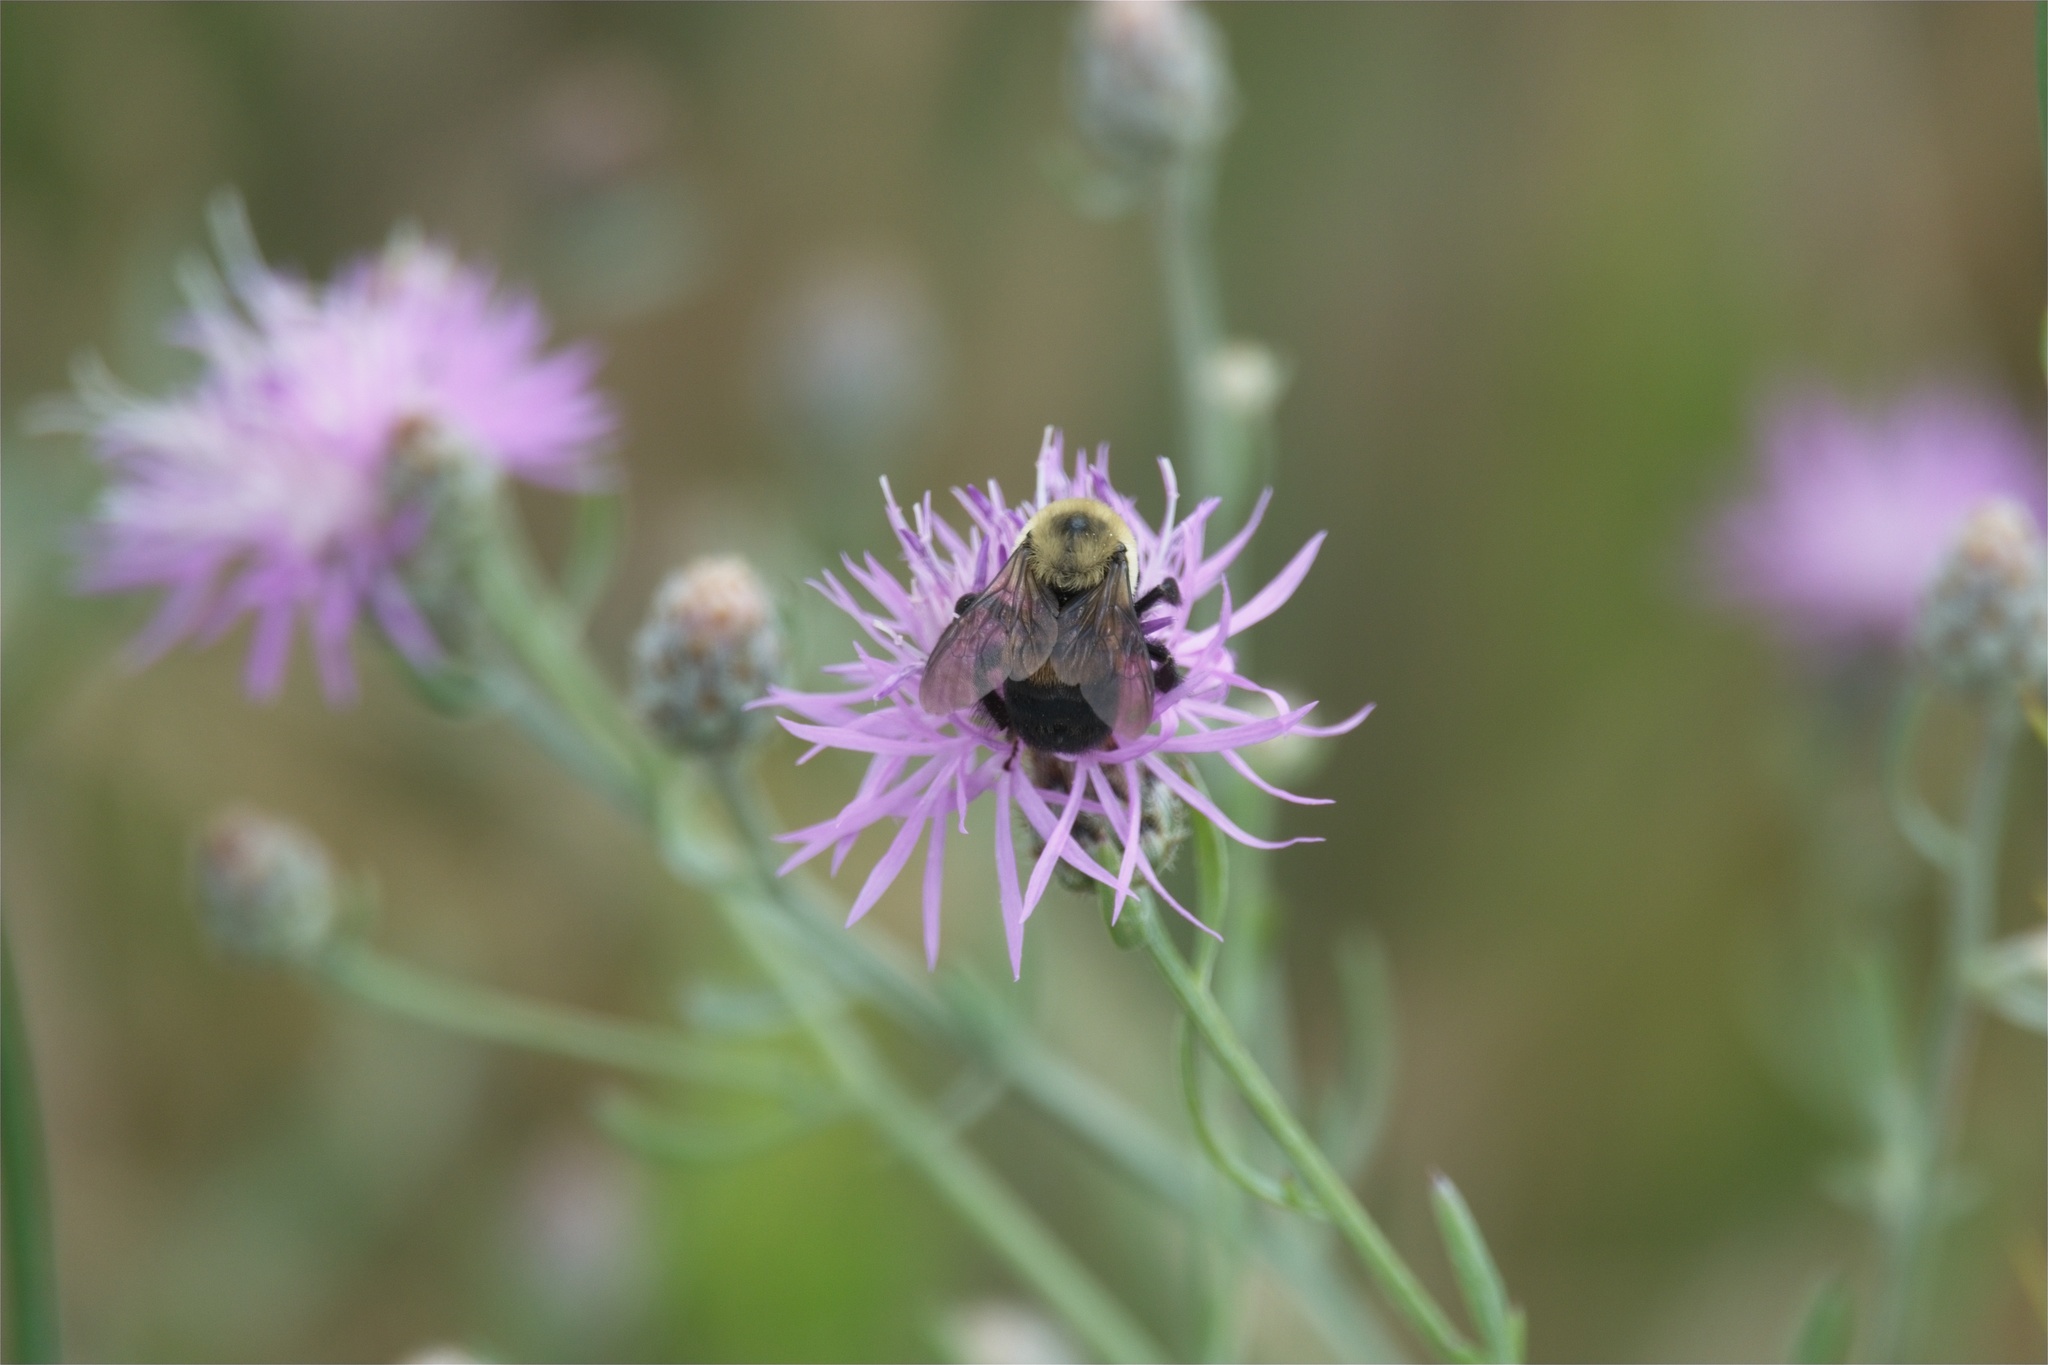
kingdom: Animalia
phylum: Arthropoda
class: Insecta
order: Hymenoptera
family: Apidae
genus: Bombus
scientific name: Bombus griseocollis
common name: Brown-belted bumble bee
